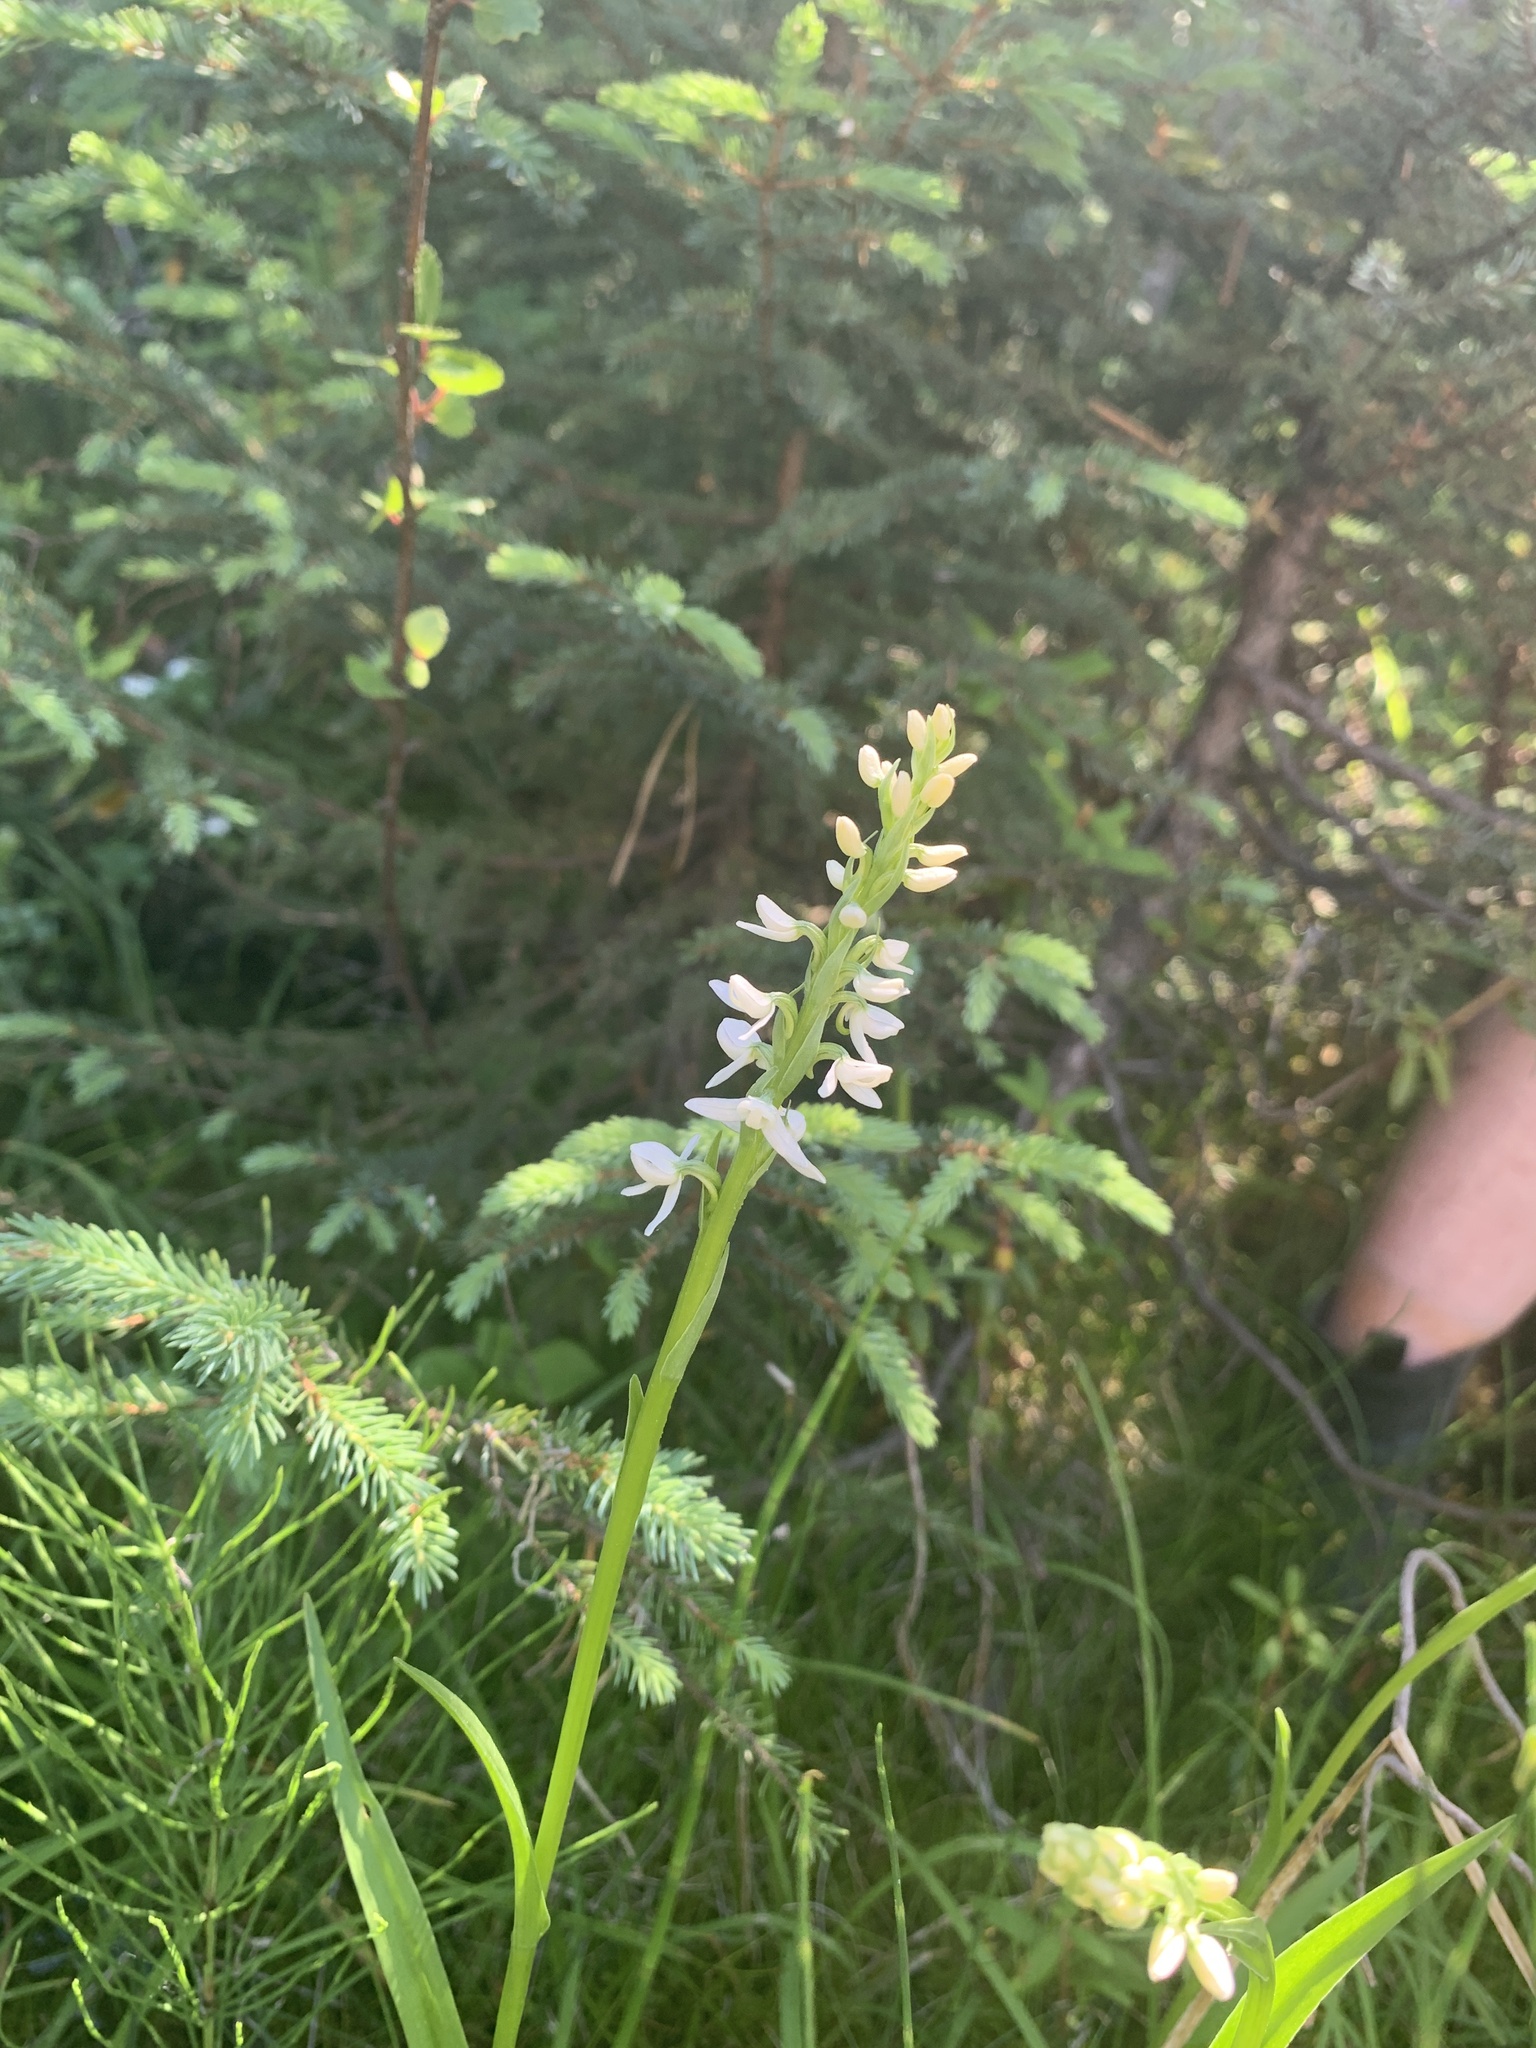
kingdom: Plantae
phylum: Tracheophyta
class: Liliopsida
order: Asparagales
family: Orchidaceae
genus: Platanthera
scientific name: Platanthera dilatata
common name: Bog candles
